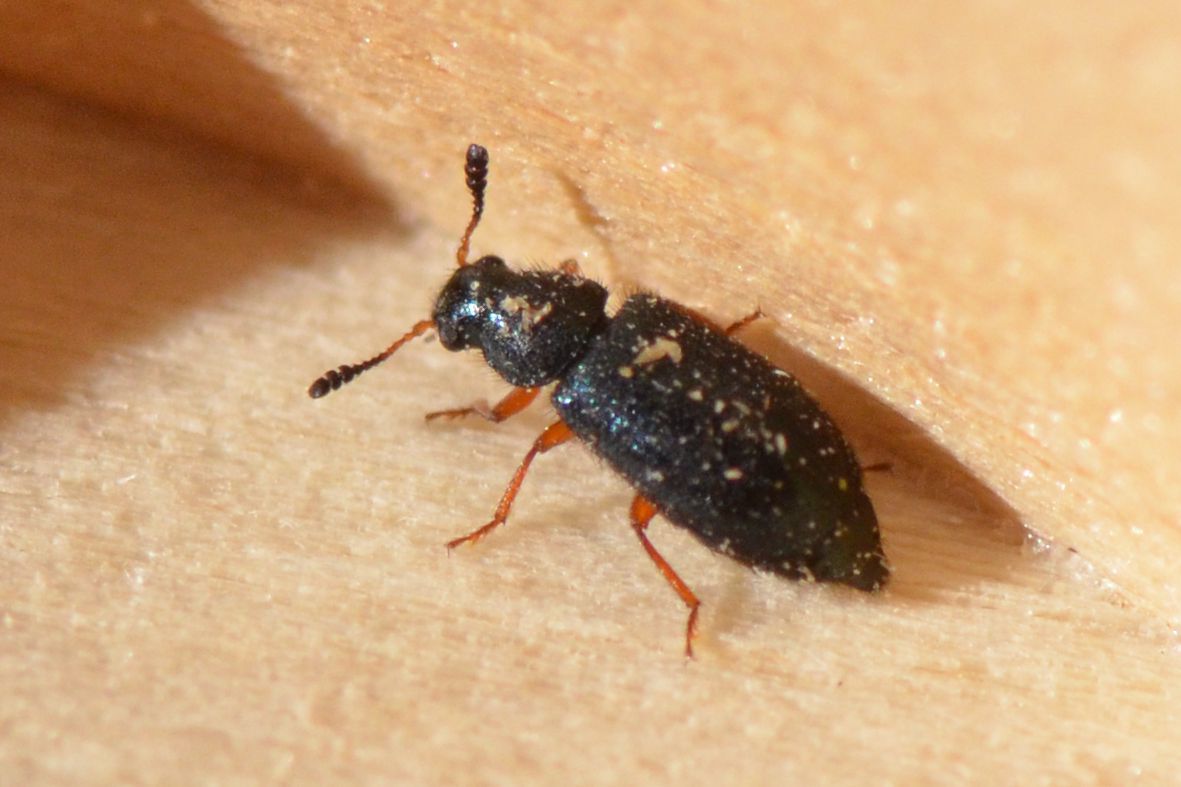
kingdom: Animalia
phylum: Arthropoda
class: Insecta
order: Coleoptera
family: Cleridae
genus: Necrobia
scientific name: Necrobia rufipes
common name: Red-legged ham beetle
